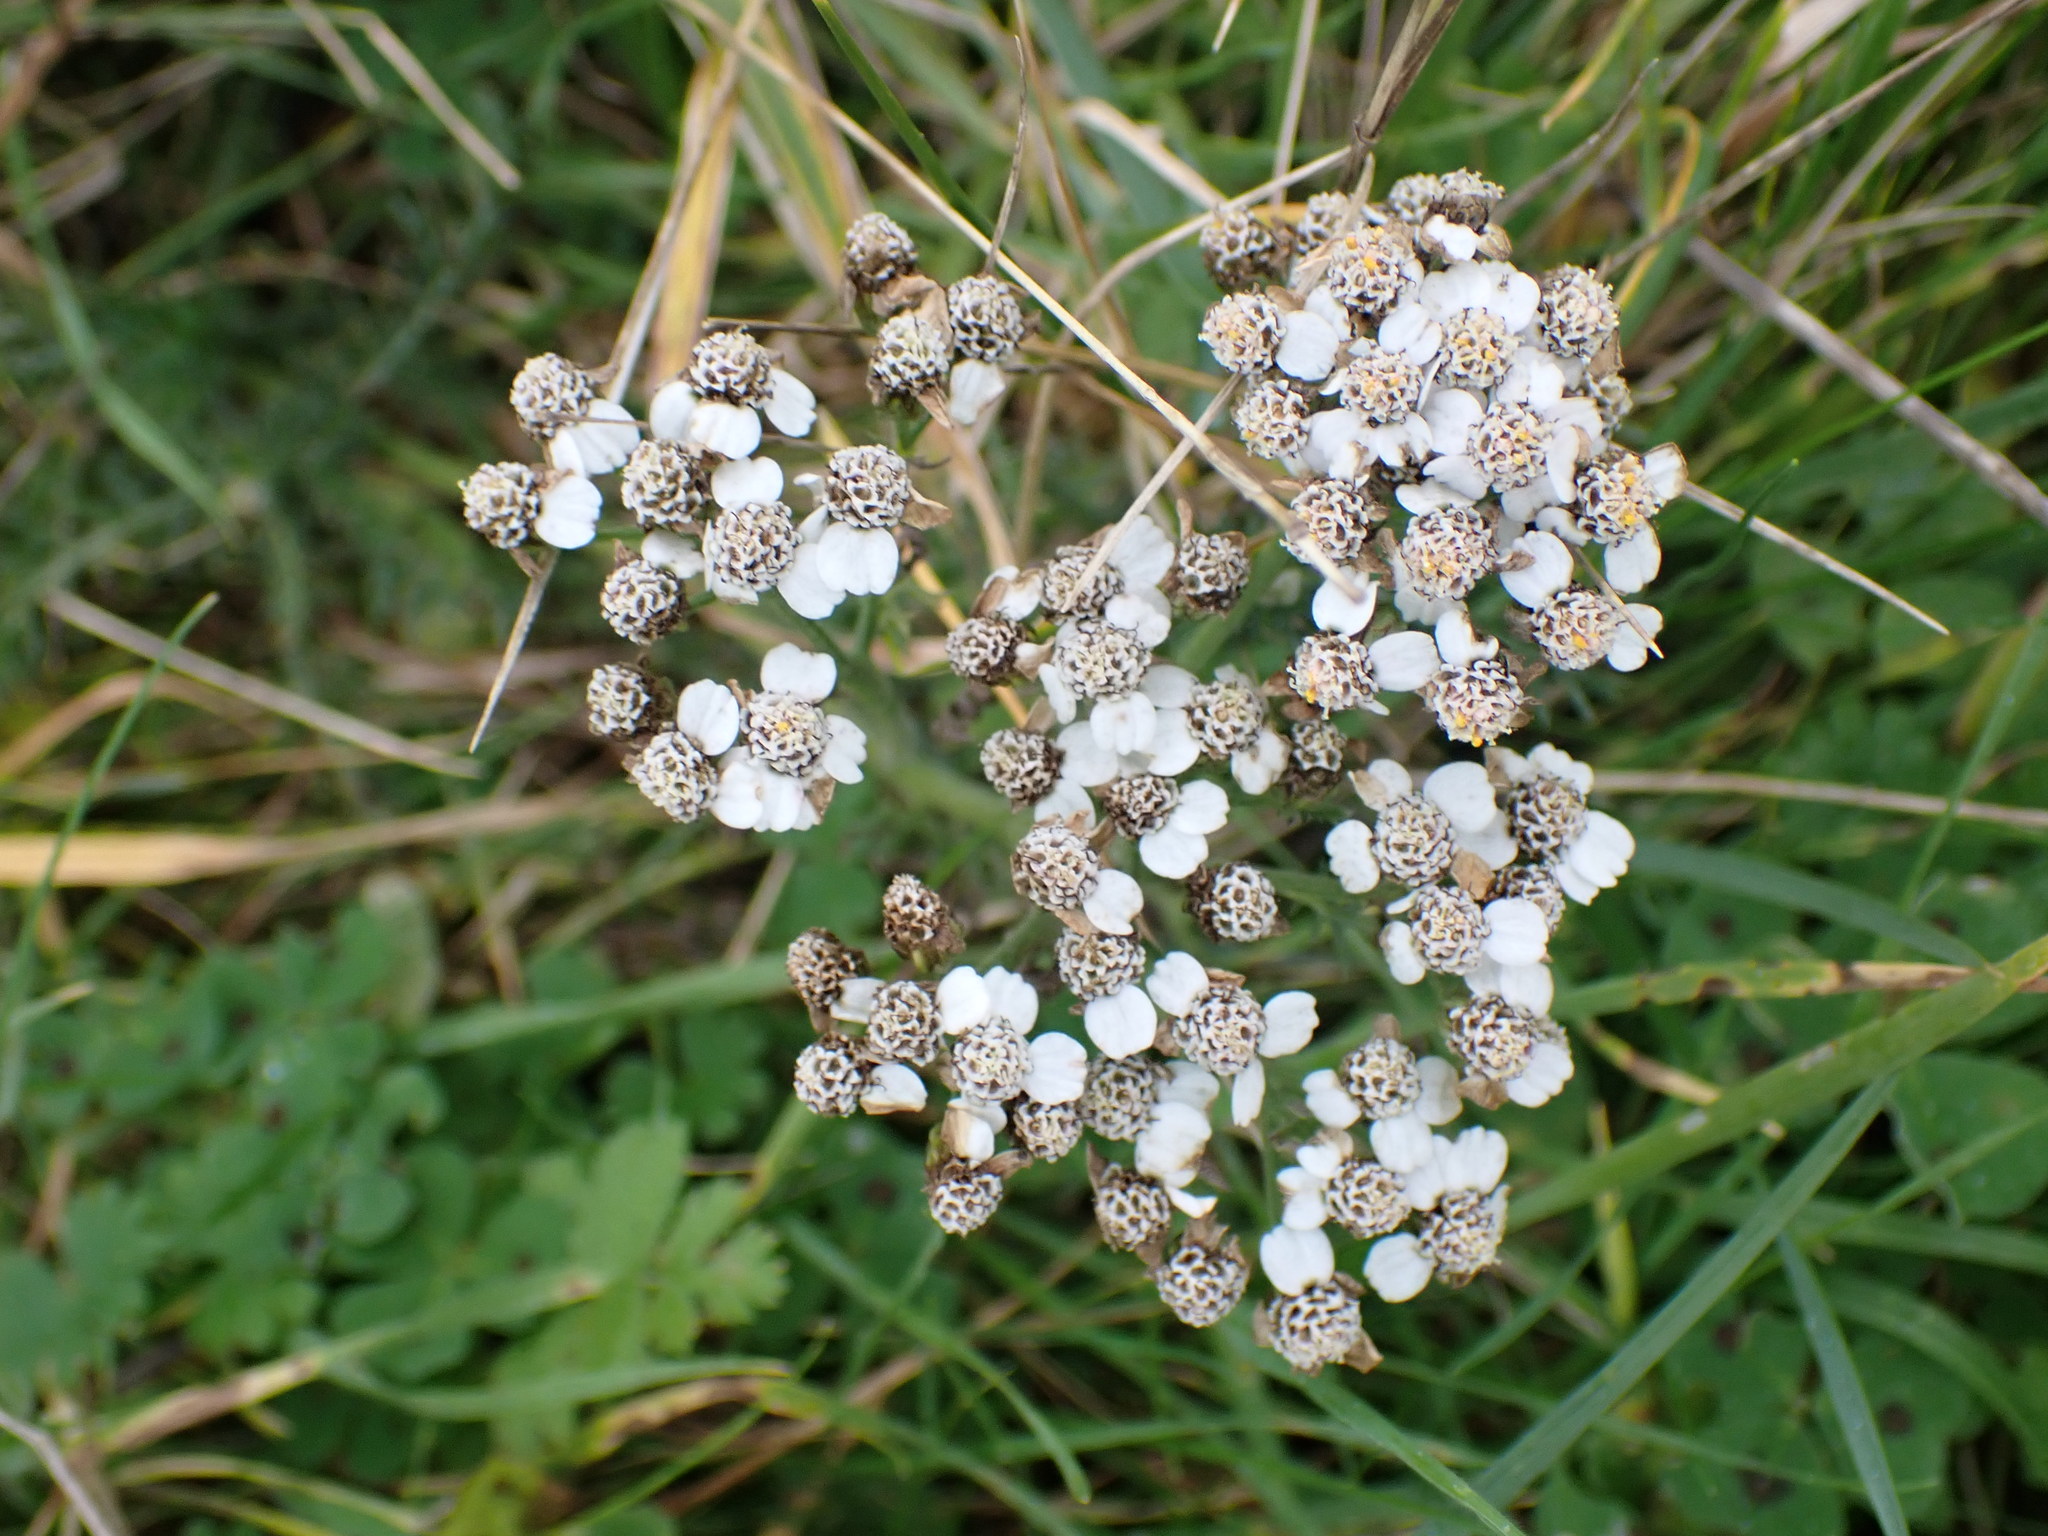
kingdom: Plantae
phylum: Tracheophyta
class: Magnoliopsida
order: Asterales
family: Asteraceae
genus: Achillea
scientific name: Achillea millefolium
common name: Yarrow
